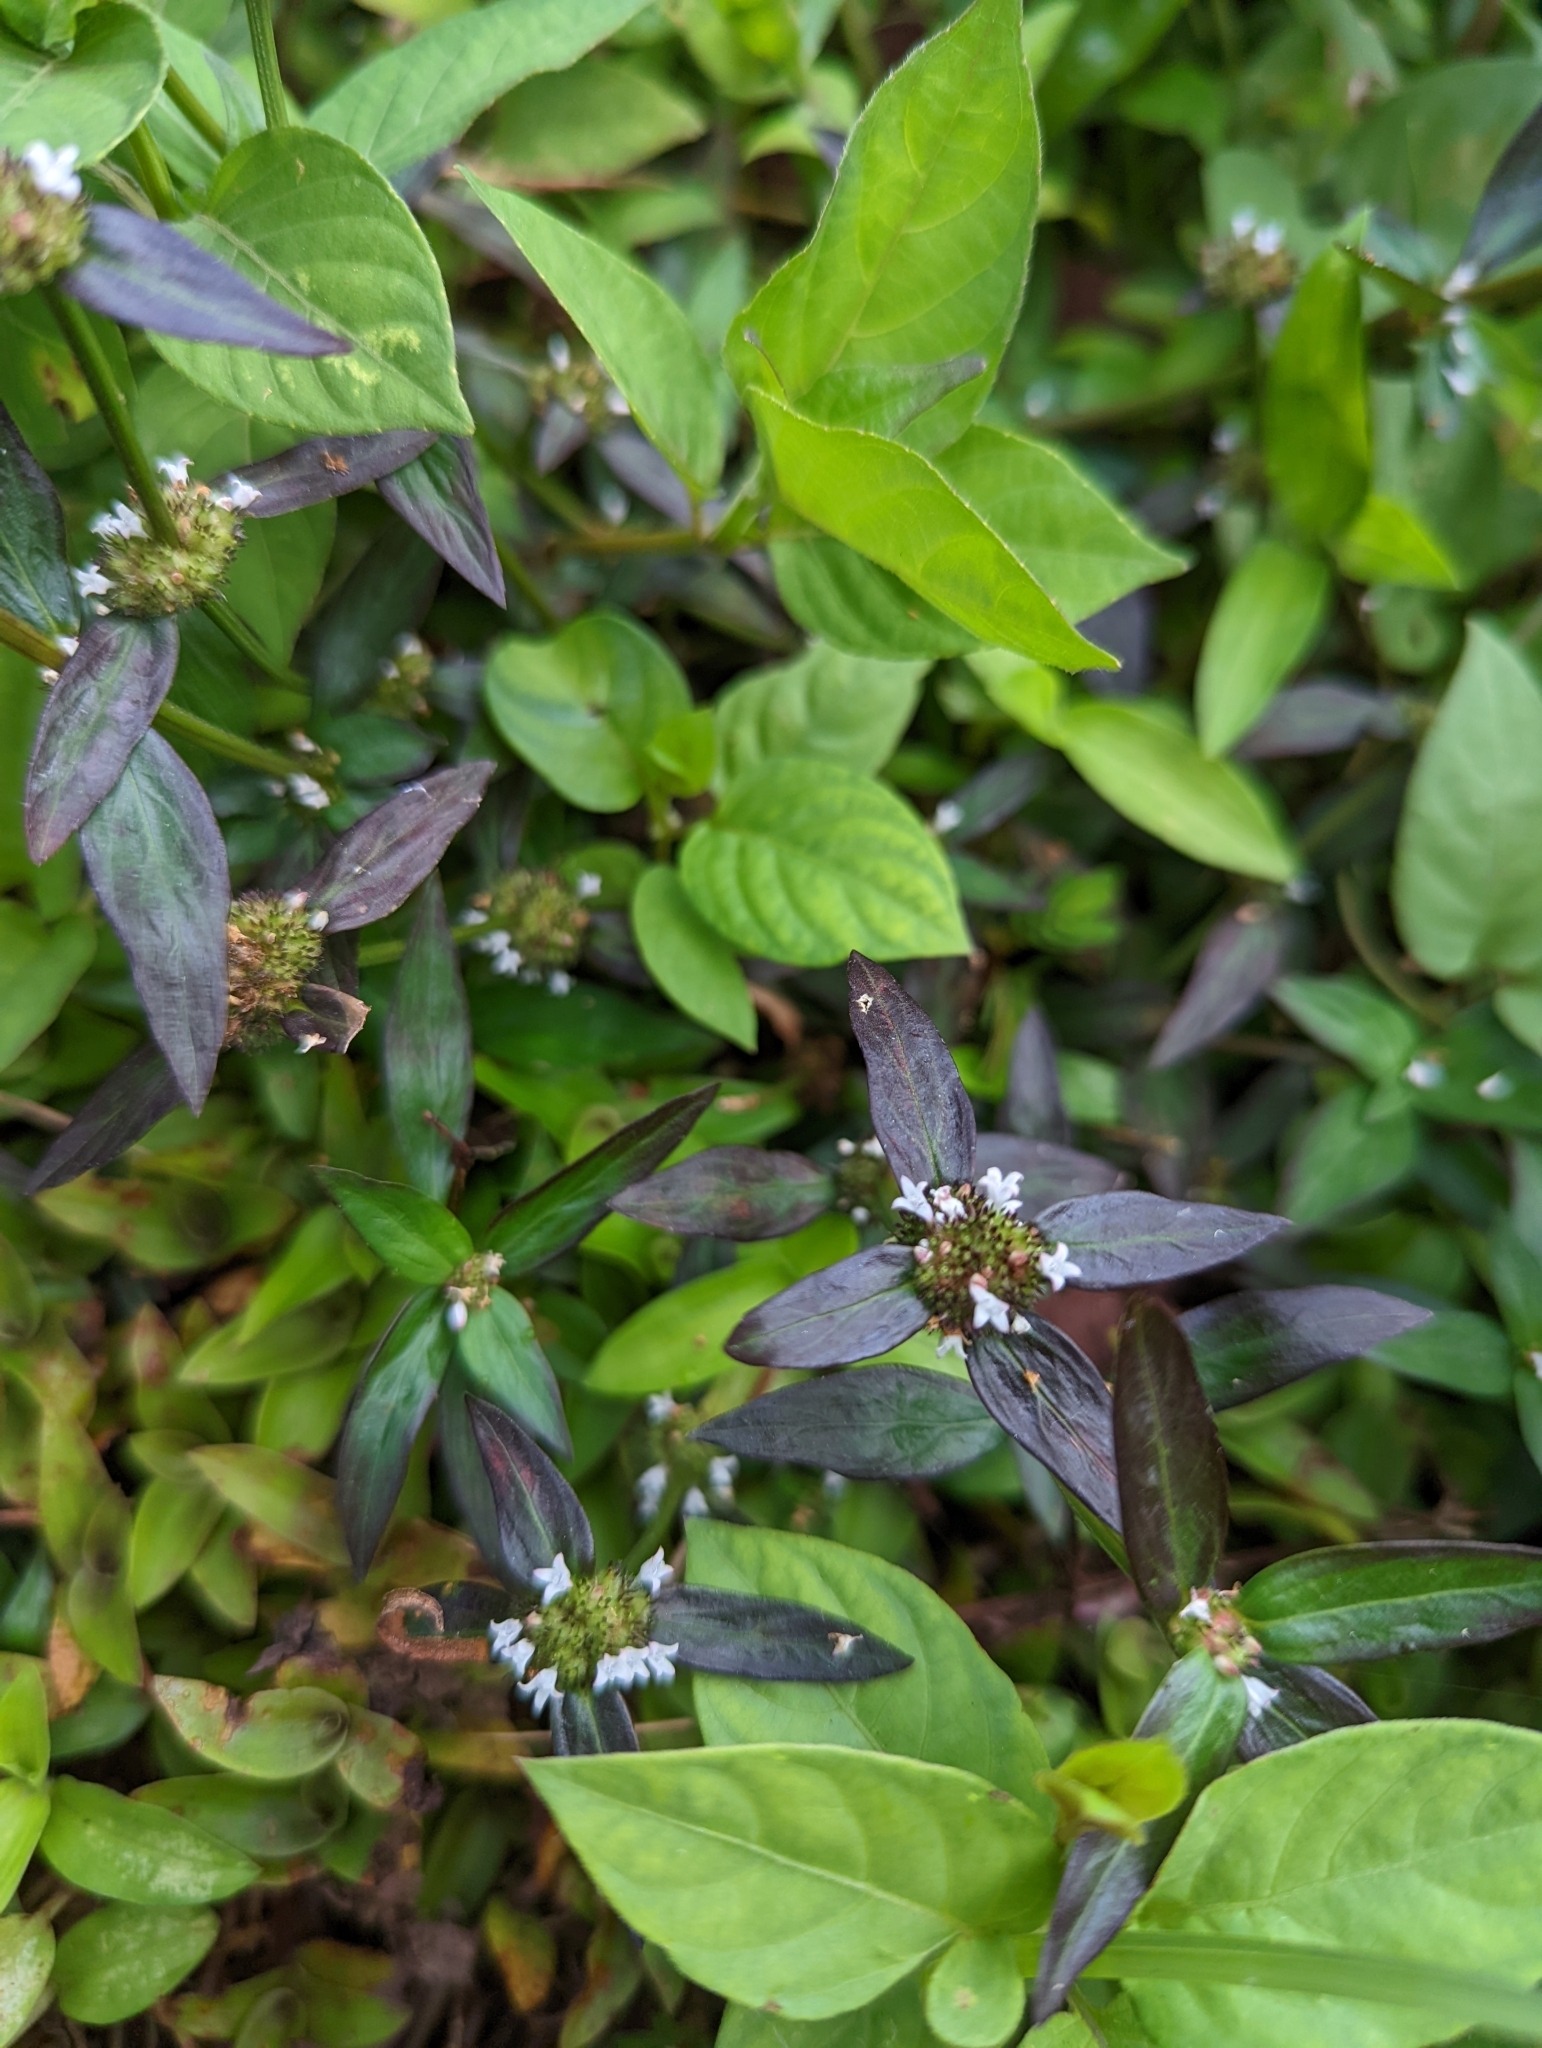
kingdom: Plantae
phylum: Tracheophyta
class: Magnoliopsida
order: Gentianales
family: Rubiaceae
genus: Spermacoce
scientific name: Spermacoce remota
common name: Woodland false buttonweed
